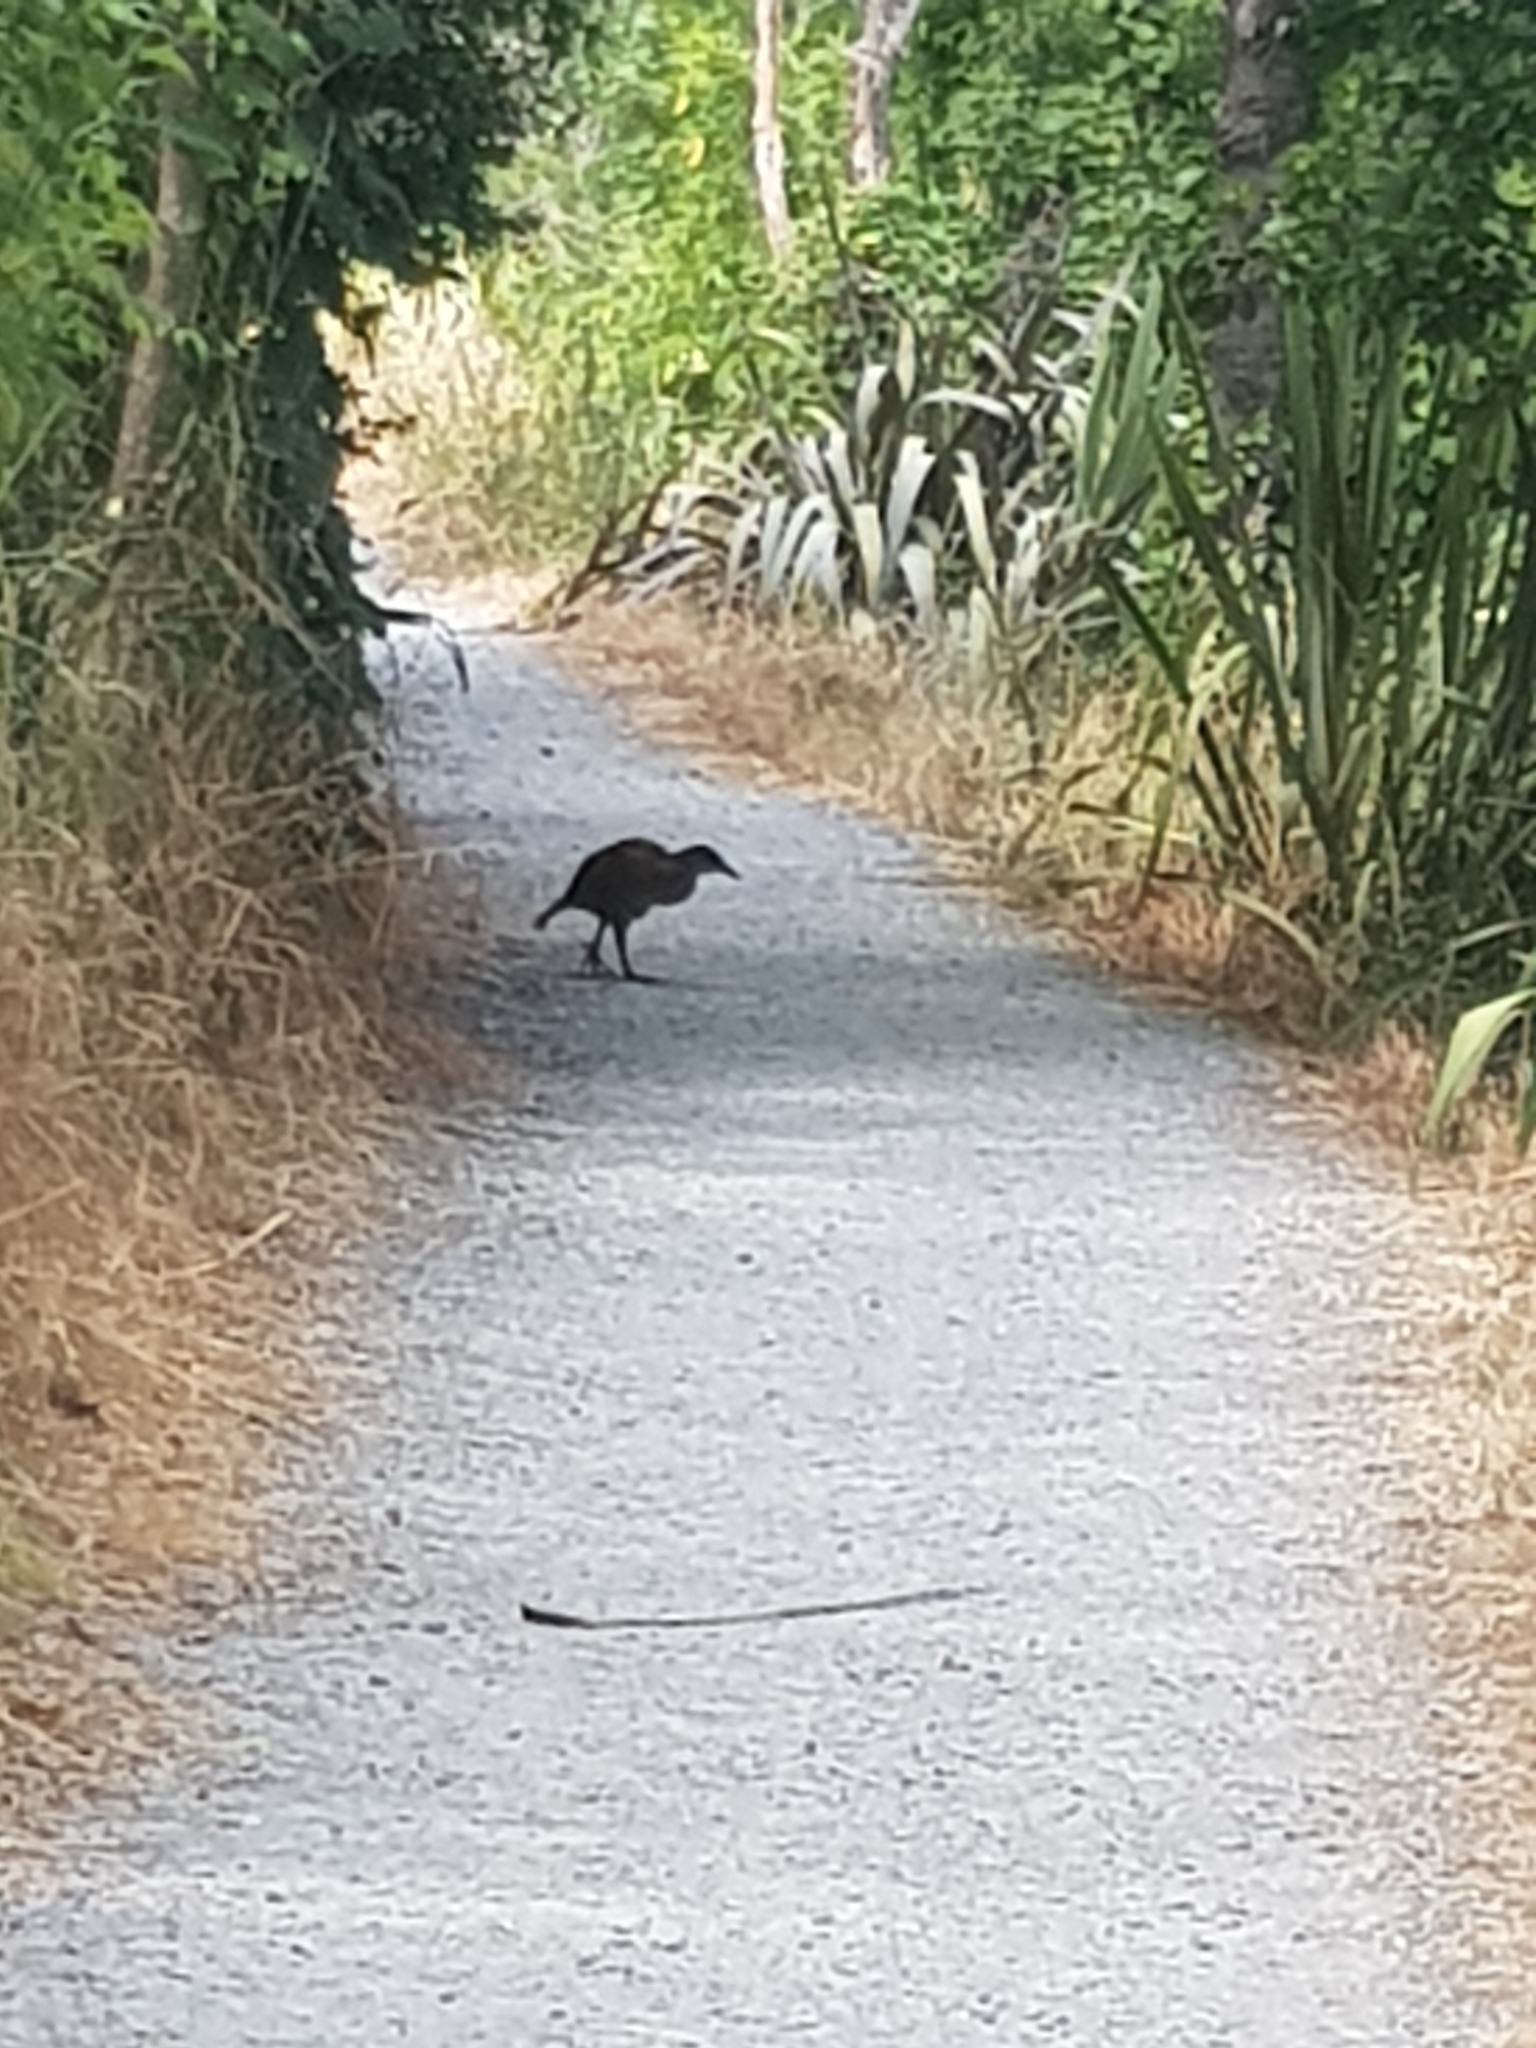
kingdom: Animalia
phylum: Chordata
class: Aves
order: Gruiformes
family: Rallidae
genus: Gallirallus
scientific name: Gallirallus australis
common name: Weka
